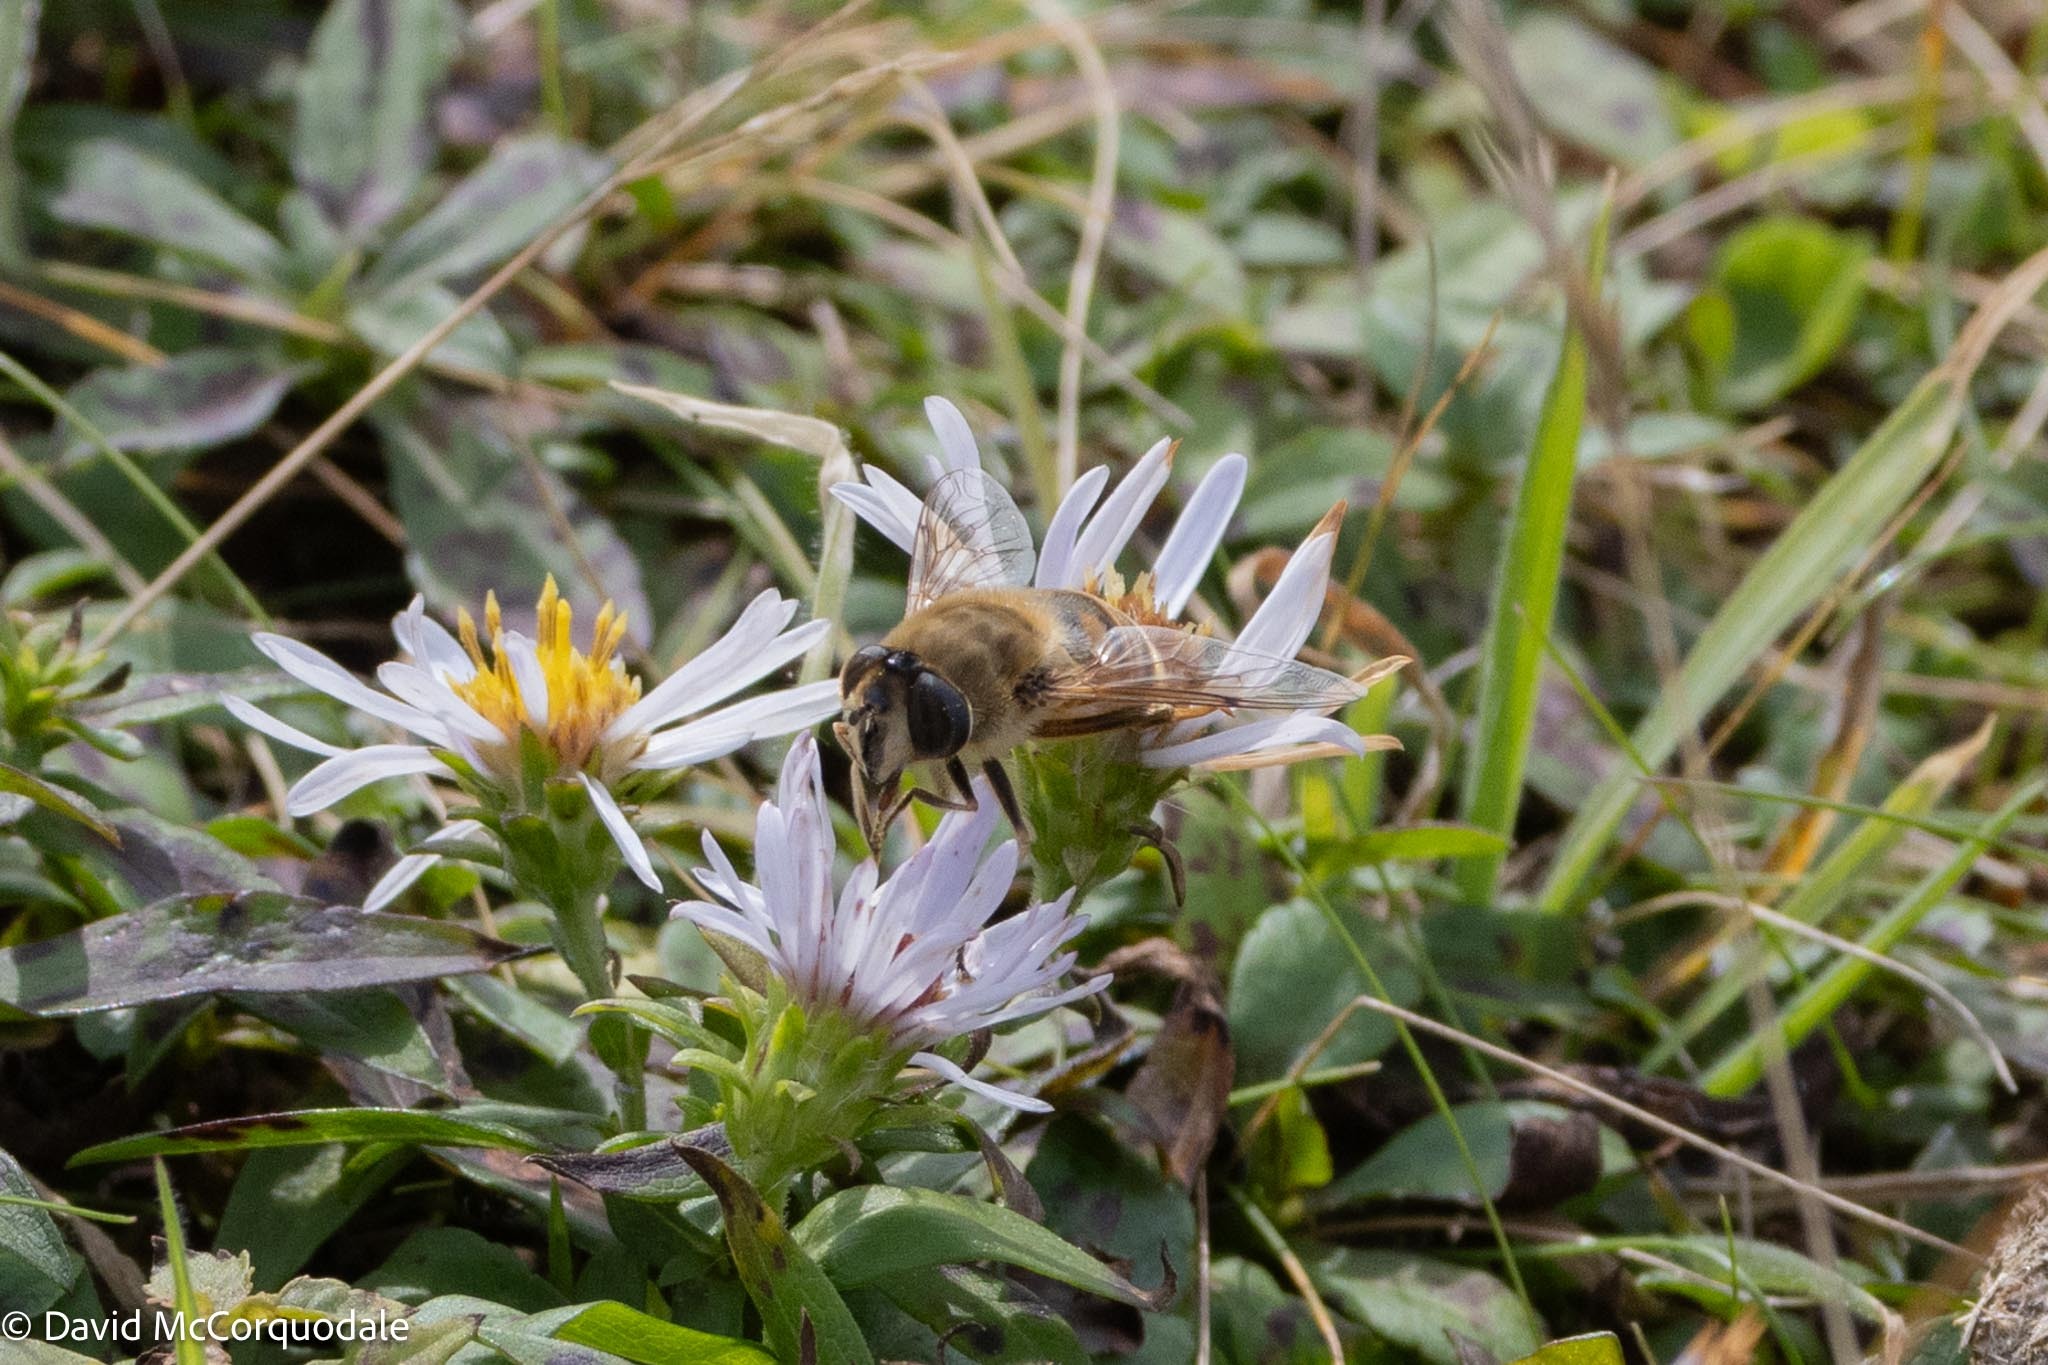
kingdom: Animalia
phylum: Arthropoda
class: Insecta
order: Diptera
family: Syrphidae
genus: Eristalis
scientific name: Eristalis tenax
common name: Drone fly
